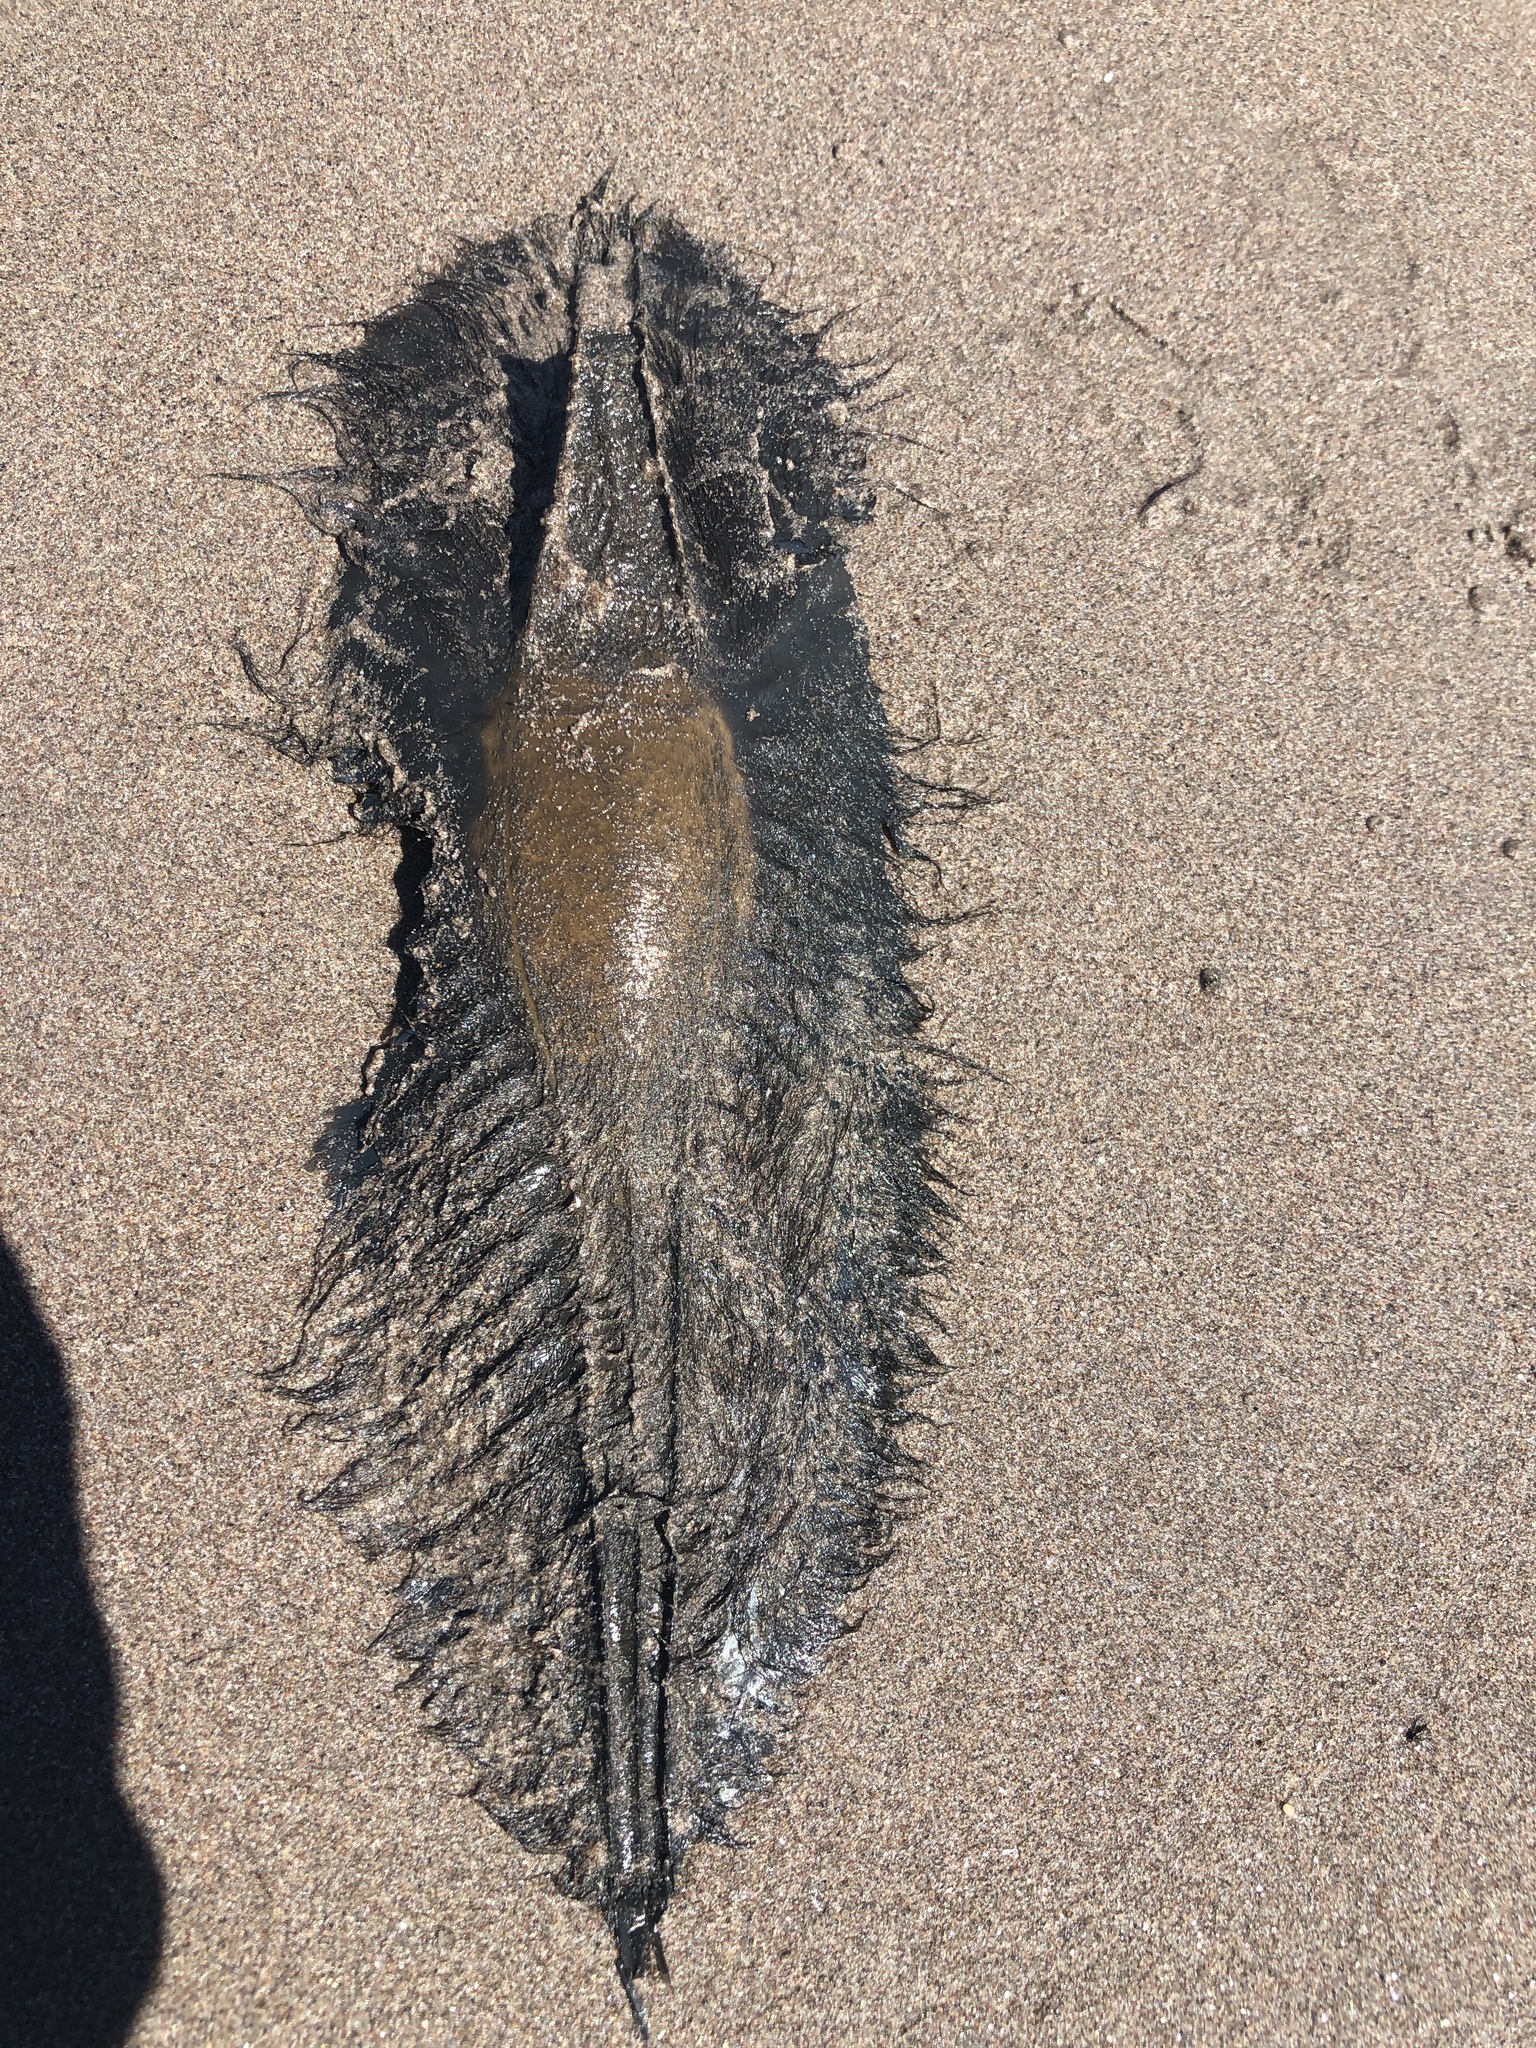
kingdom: Animalia
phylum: Chordata
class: Holocephali
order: Chimaeriformes
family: Callorhinchidae
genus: Callorhinchus
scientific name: Callorhinchus callorynchus
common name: Elephant fish
